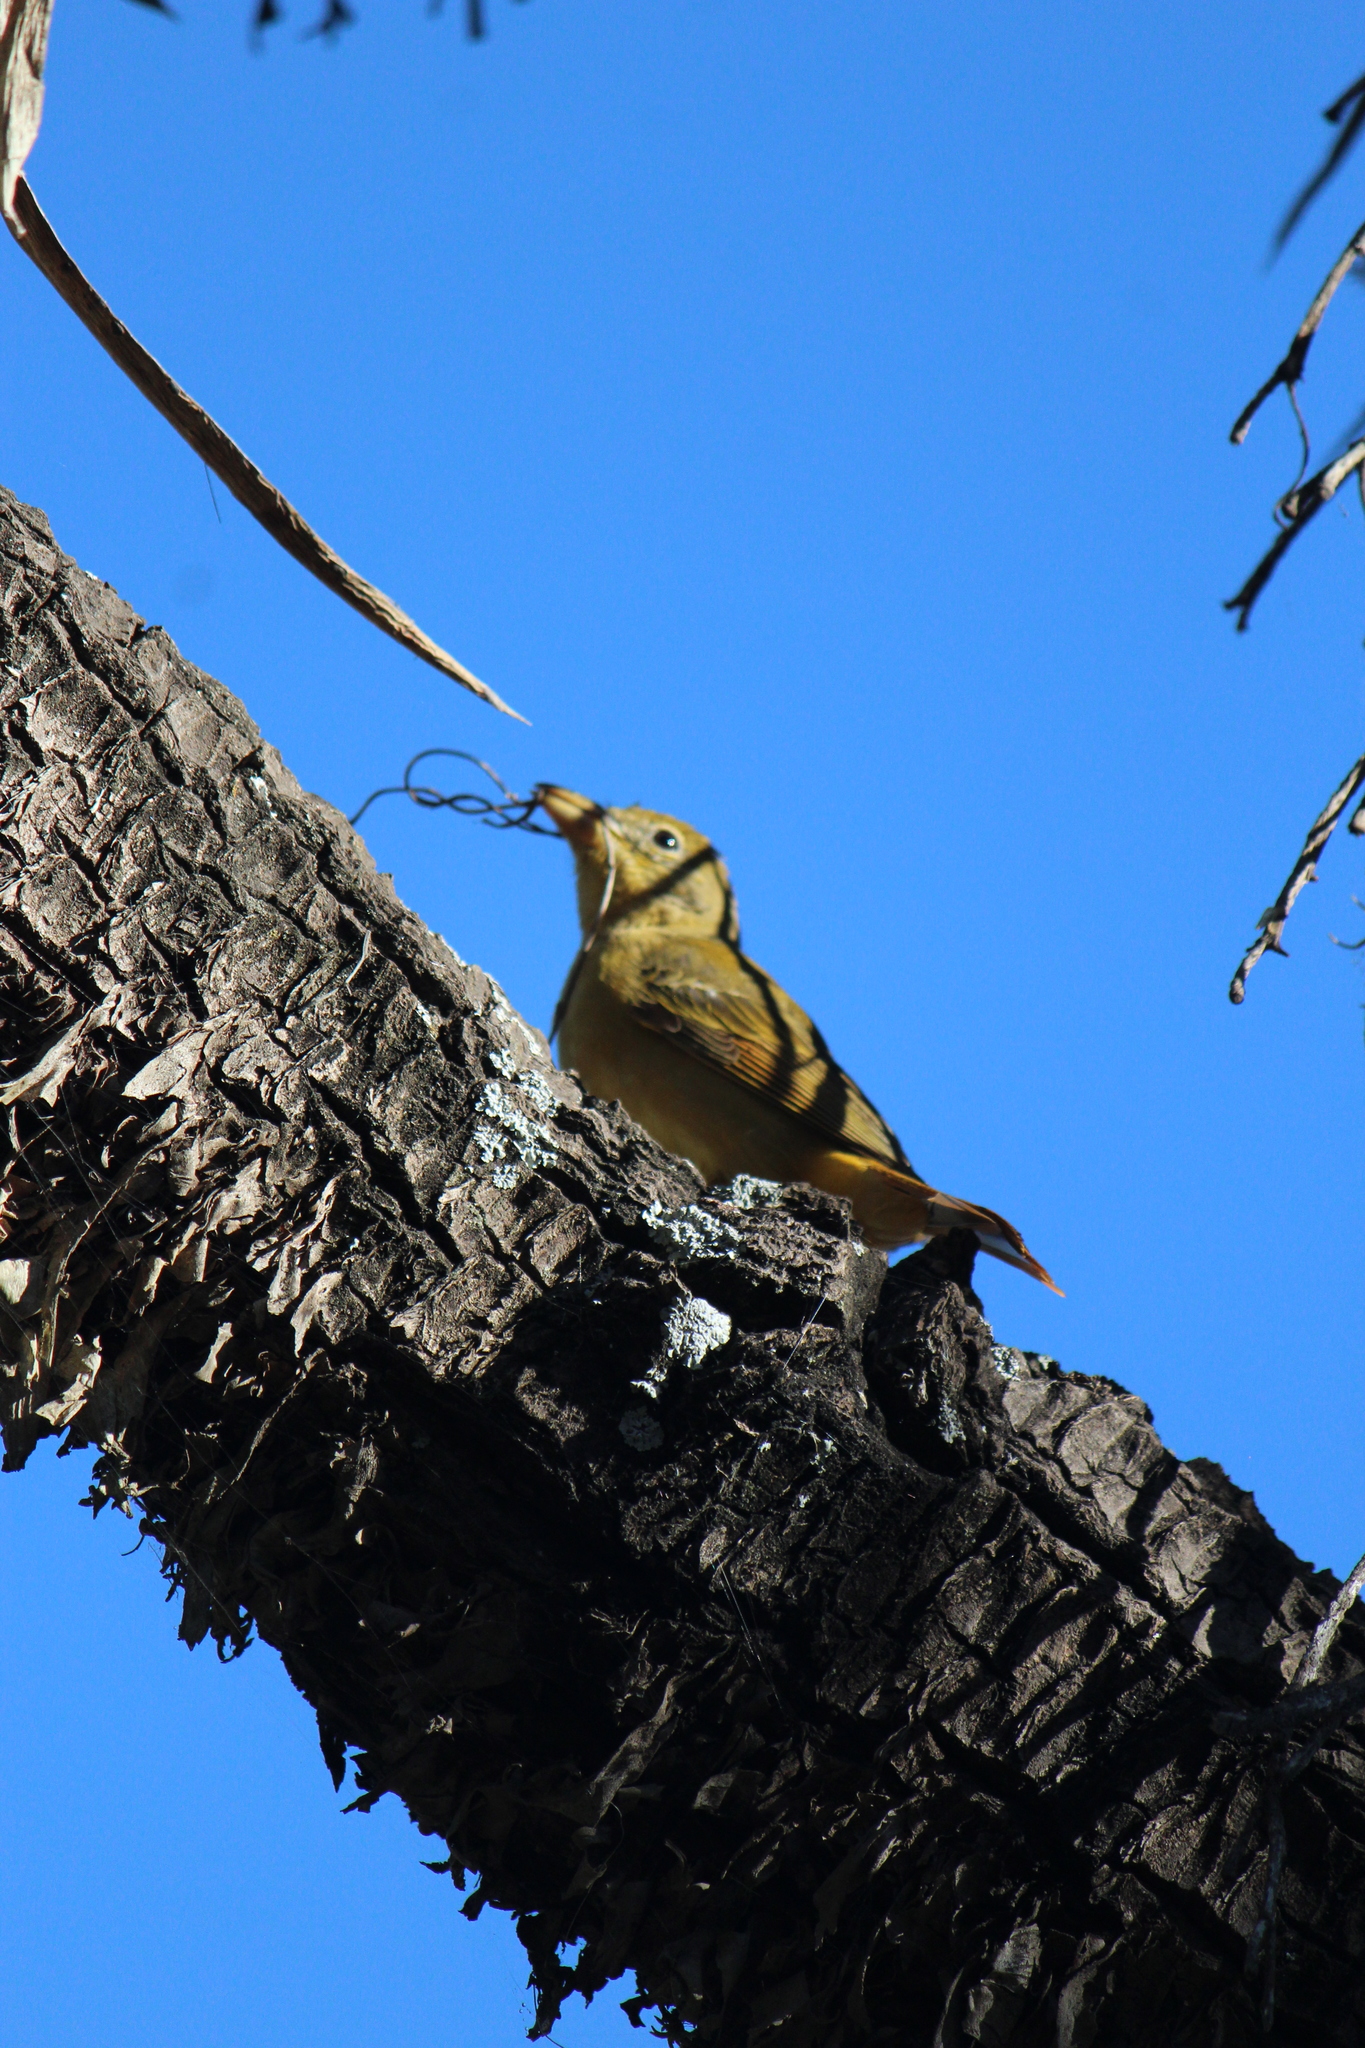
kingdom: Animalia
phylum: Chordata
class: Aves
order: Passeriformes
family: Cardinalidae
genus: Piranga
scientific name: Piranga rubra
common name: Summer tanager
